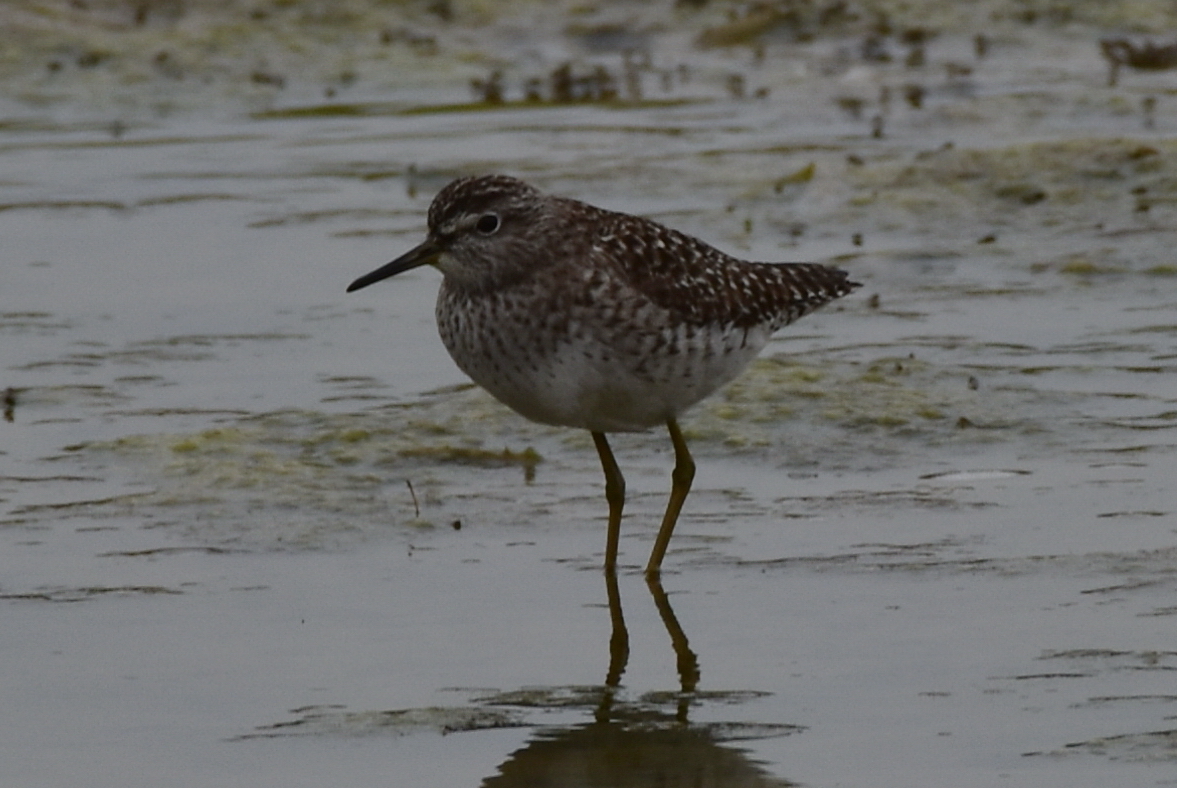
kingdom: Animalia
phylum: Chordata
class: Aves
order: Charadriiformes
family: Scolopacidae
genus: Tringa
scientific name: Tringa glareola
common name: Wood sandpiper
